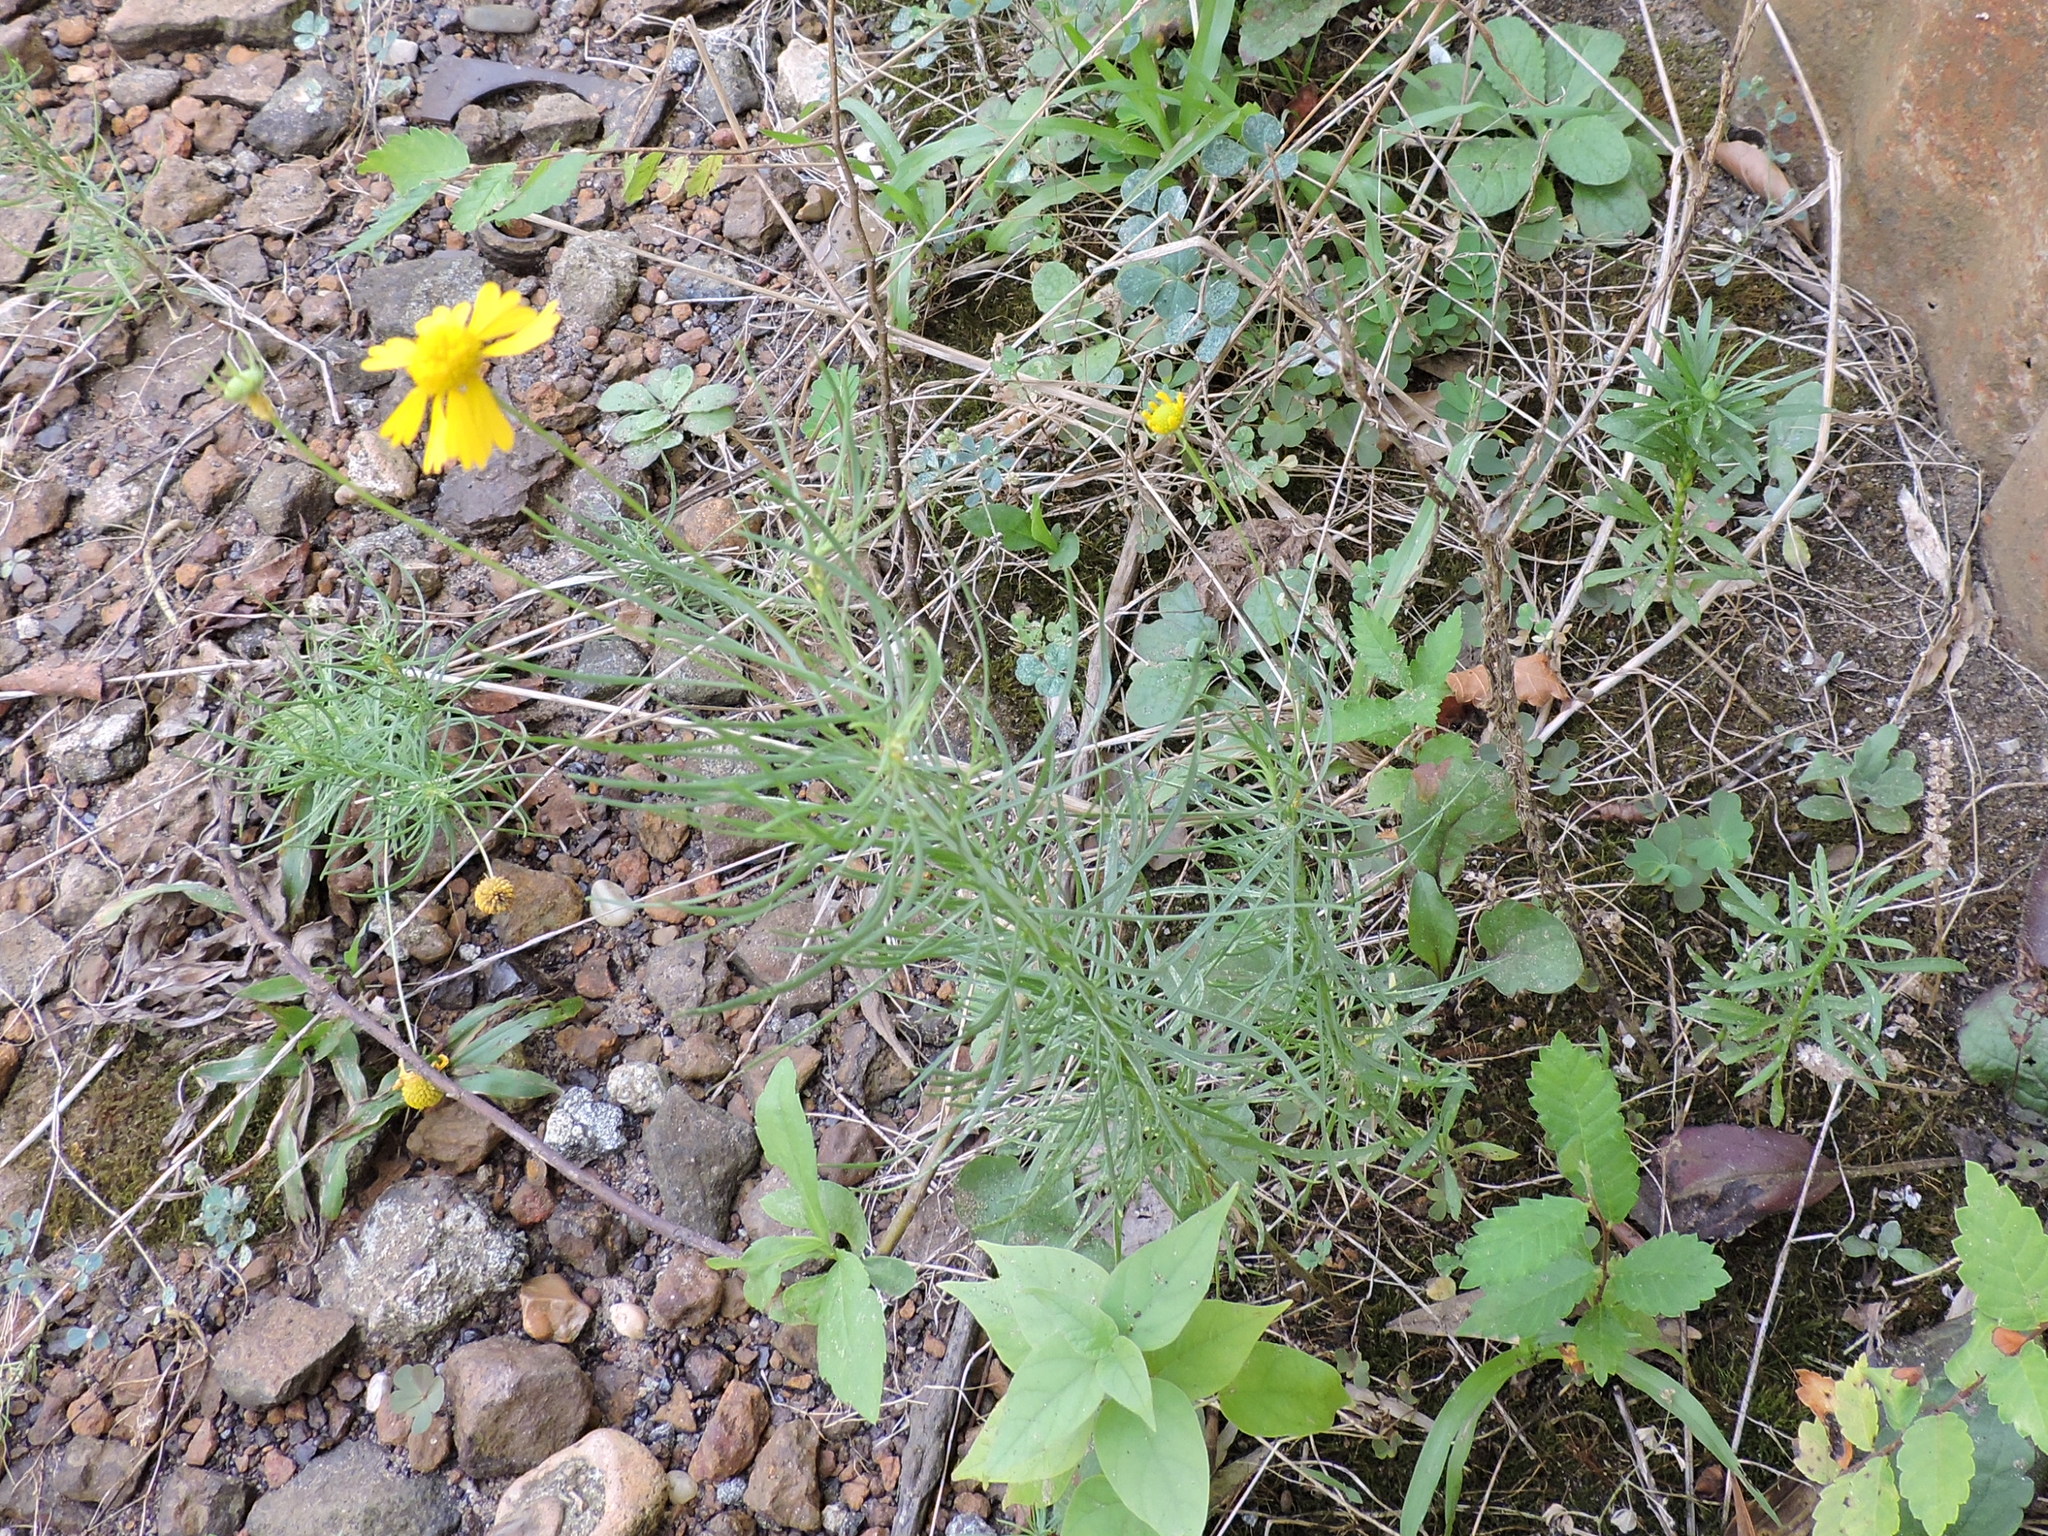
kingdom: Plantae
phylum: Tracheophyta
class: Magnoliopsida
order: Asterales
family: Asteraceae
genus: Helenium
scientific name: Helenium amarum
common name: Bitter sneezeweed
